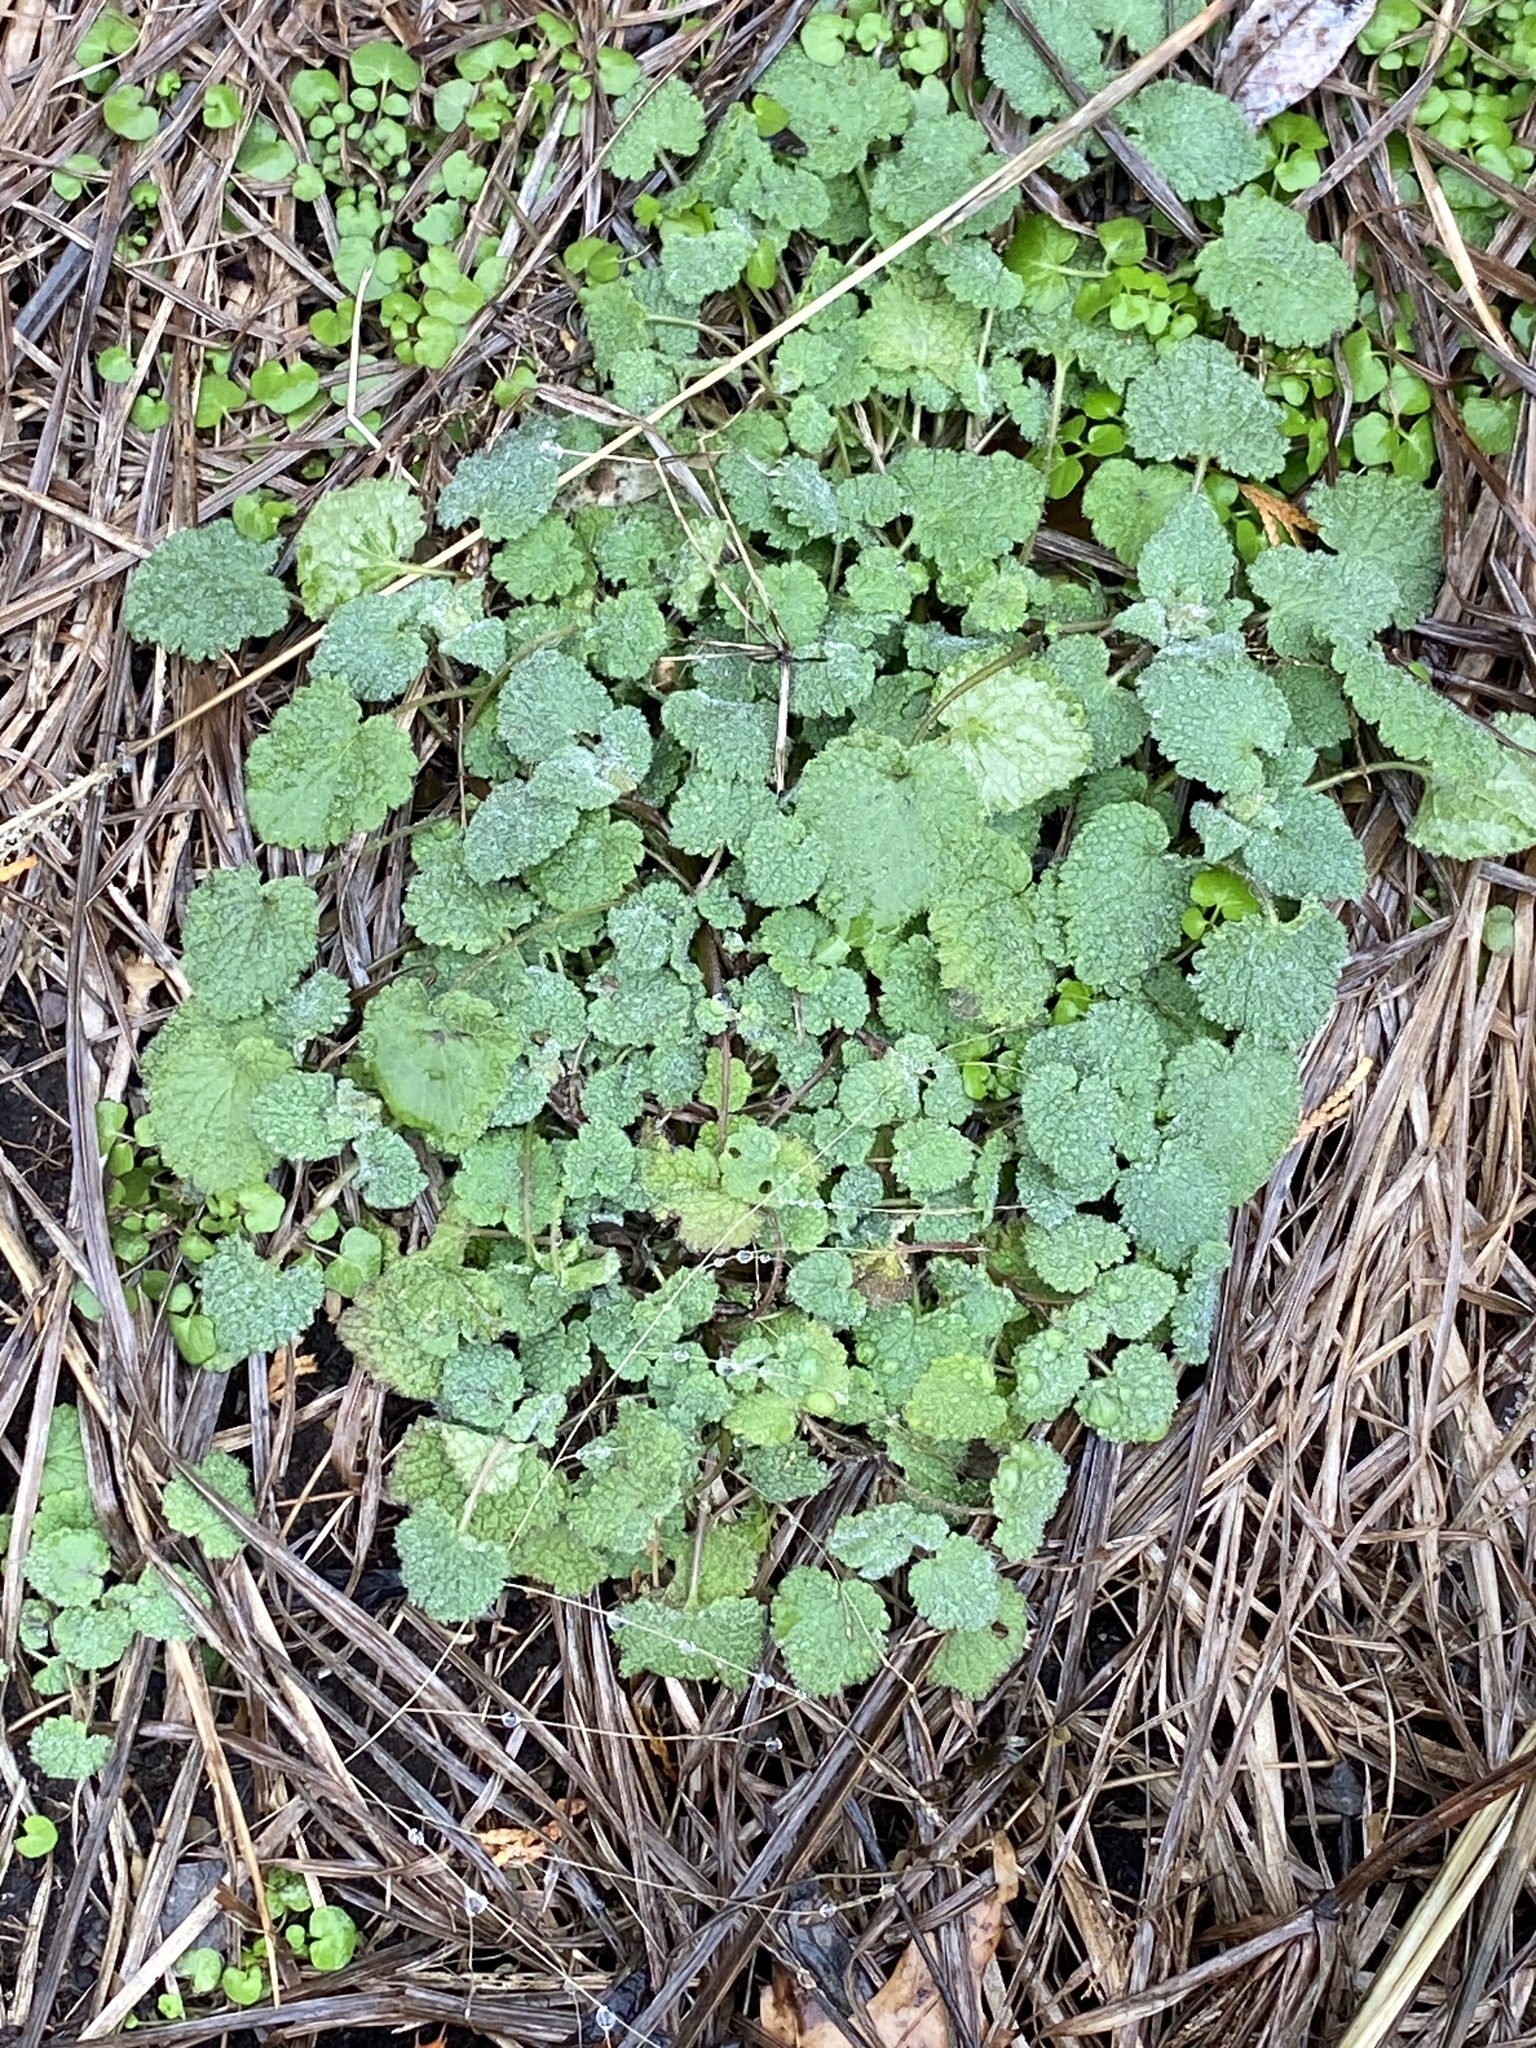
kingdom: Plantae
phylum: Tracheophyta
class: Magnoliopsida
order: Lamiales
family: Lamiaceae
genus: Lamium
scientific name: Lamium purpureum
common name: Red dead-nettle
